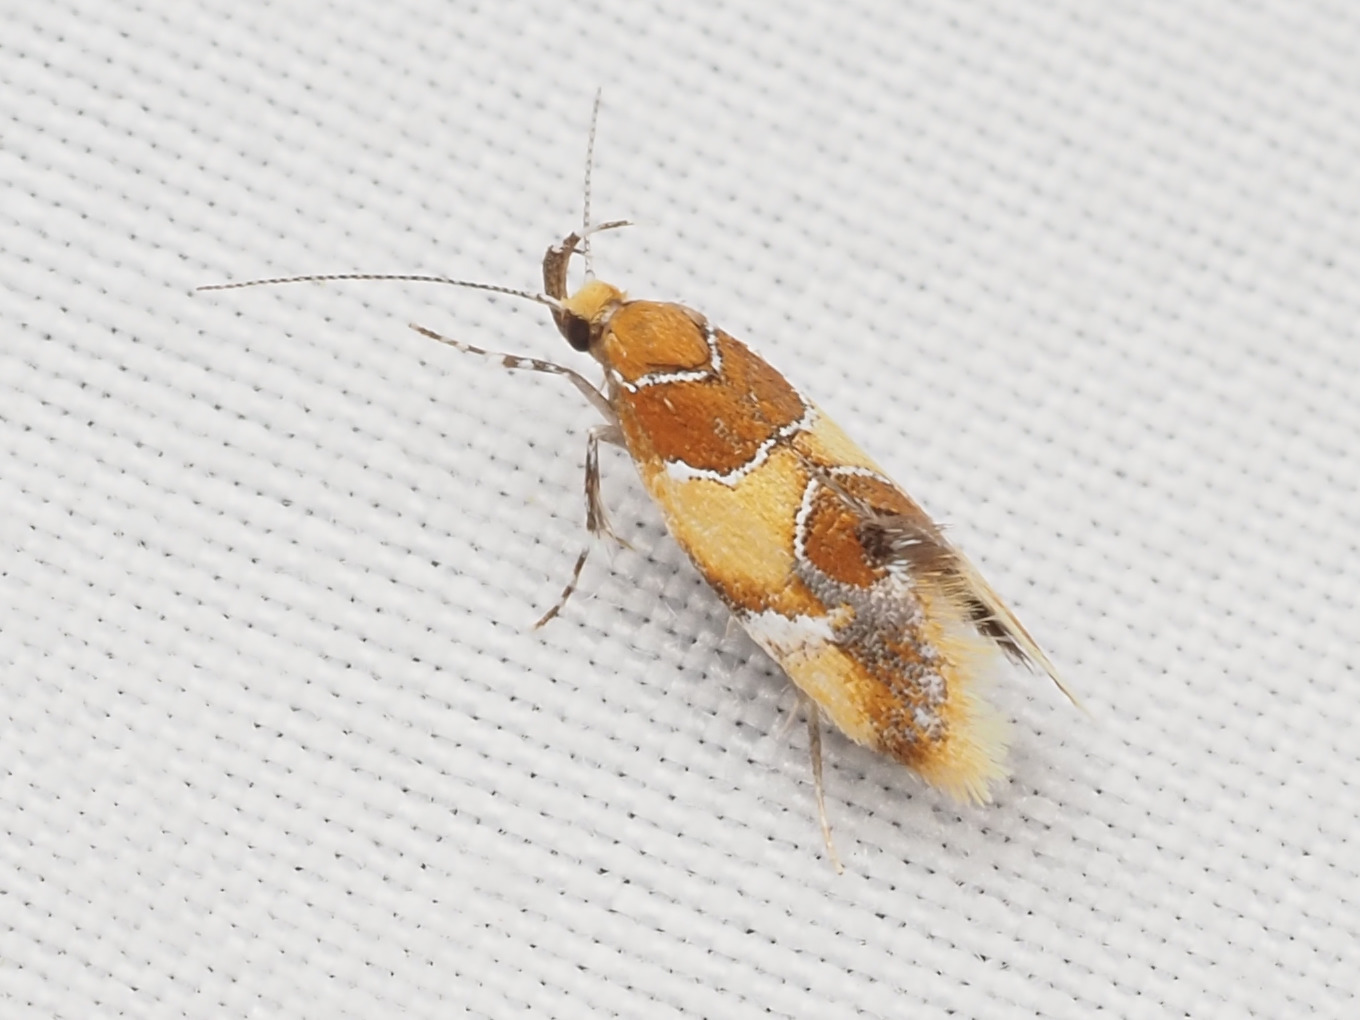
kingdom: Animalia
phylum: Arthropoda
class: Insecta
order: Lepidoptera
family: Oecophoridae
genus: Callima
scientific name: Callima argenticinctella
